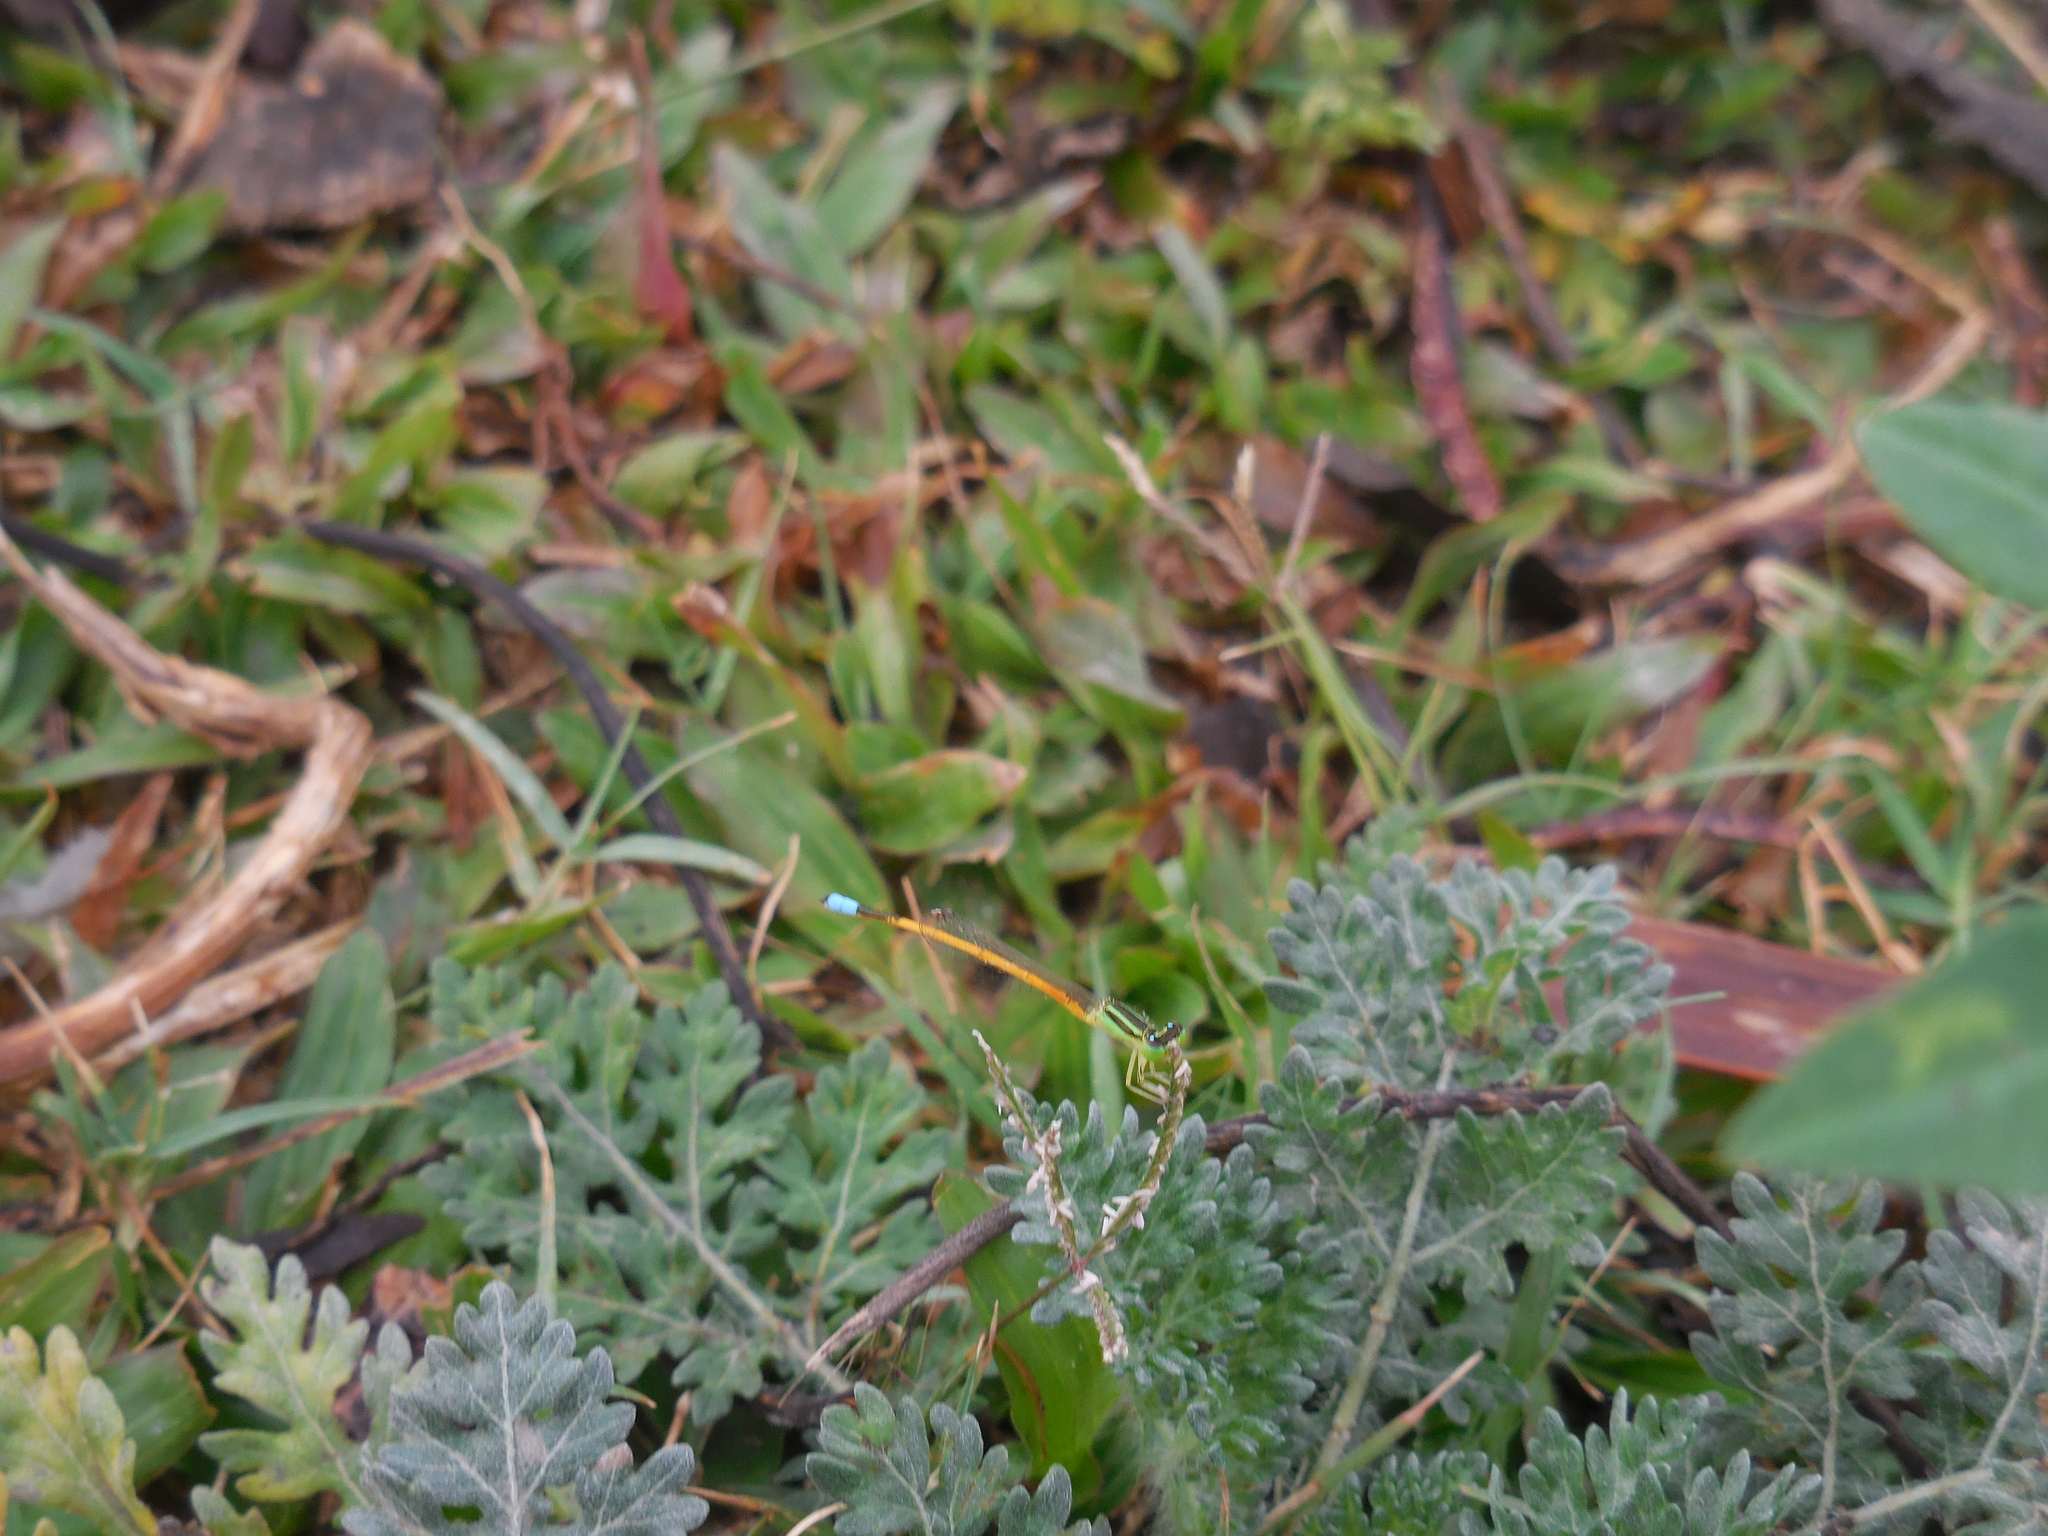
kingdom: Animalia
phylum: Arthropoda
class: Insecta
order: Odonata
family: Coenagrionidae
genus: Ischnura
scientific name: Ischnura rubilio
